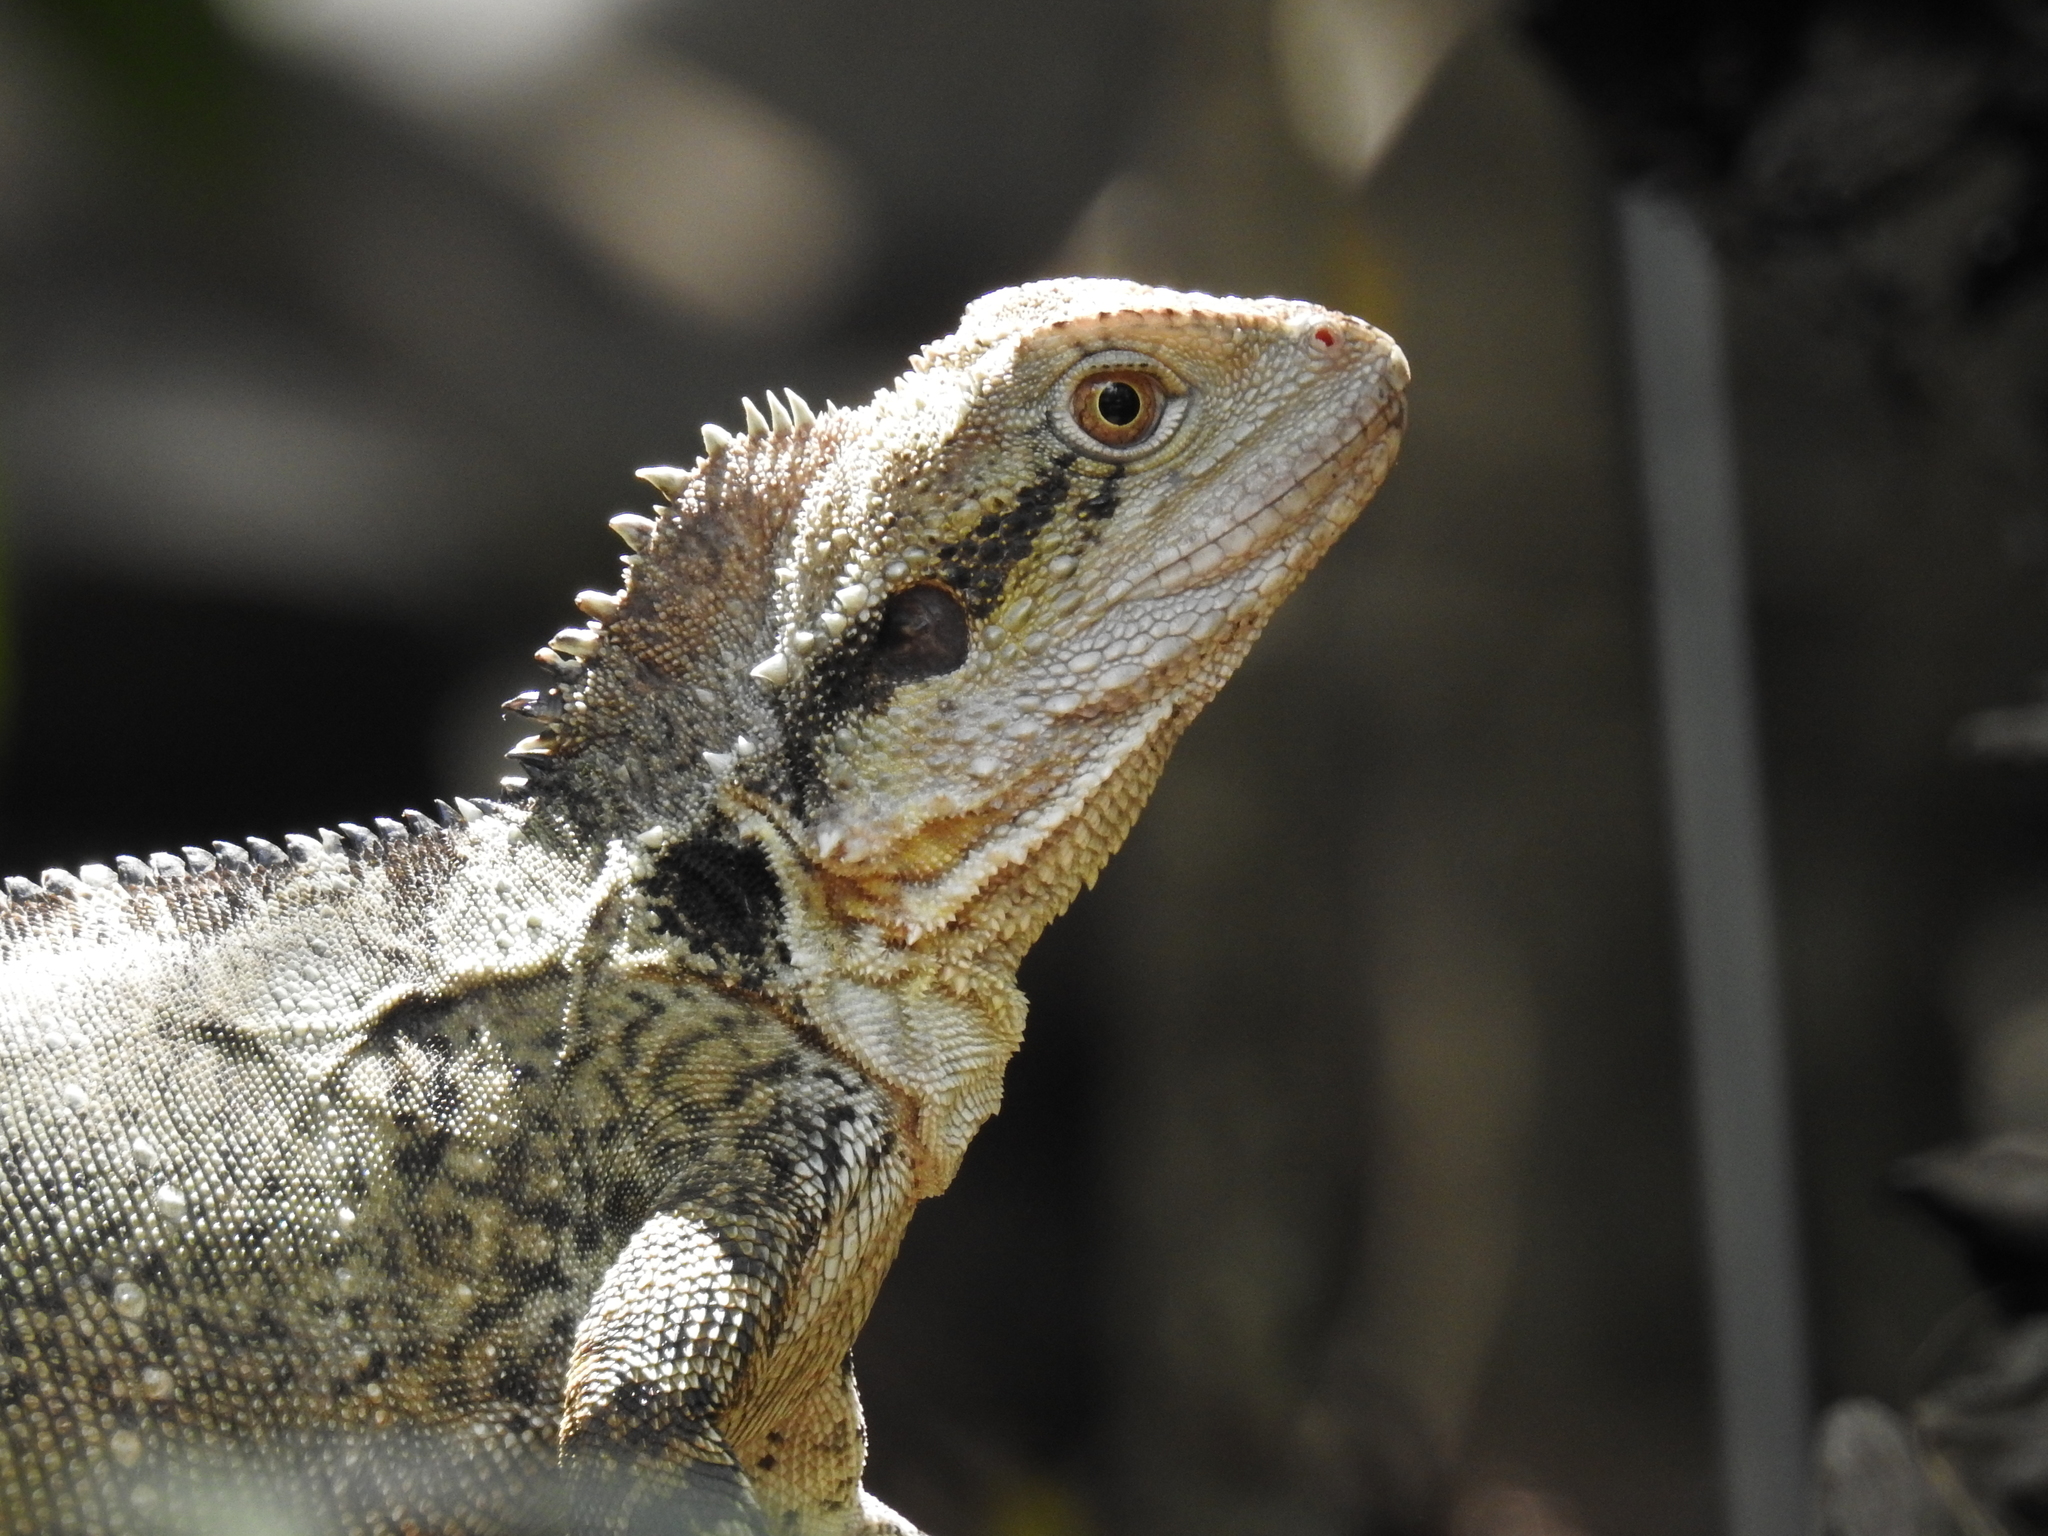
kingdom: Animalia
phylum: Chordata
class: Squamata
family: Agamidae
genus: Intellagama
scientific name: Intellagama lesueurii
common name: Eastern water dragon
